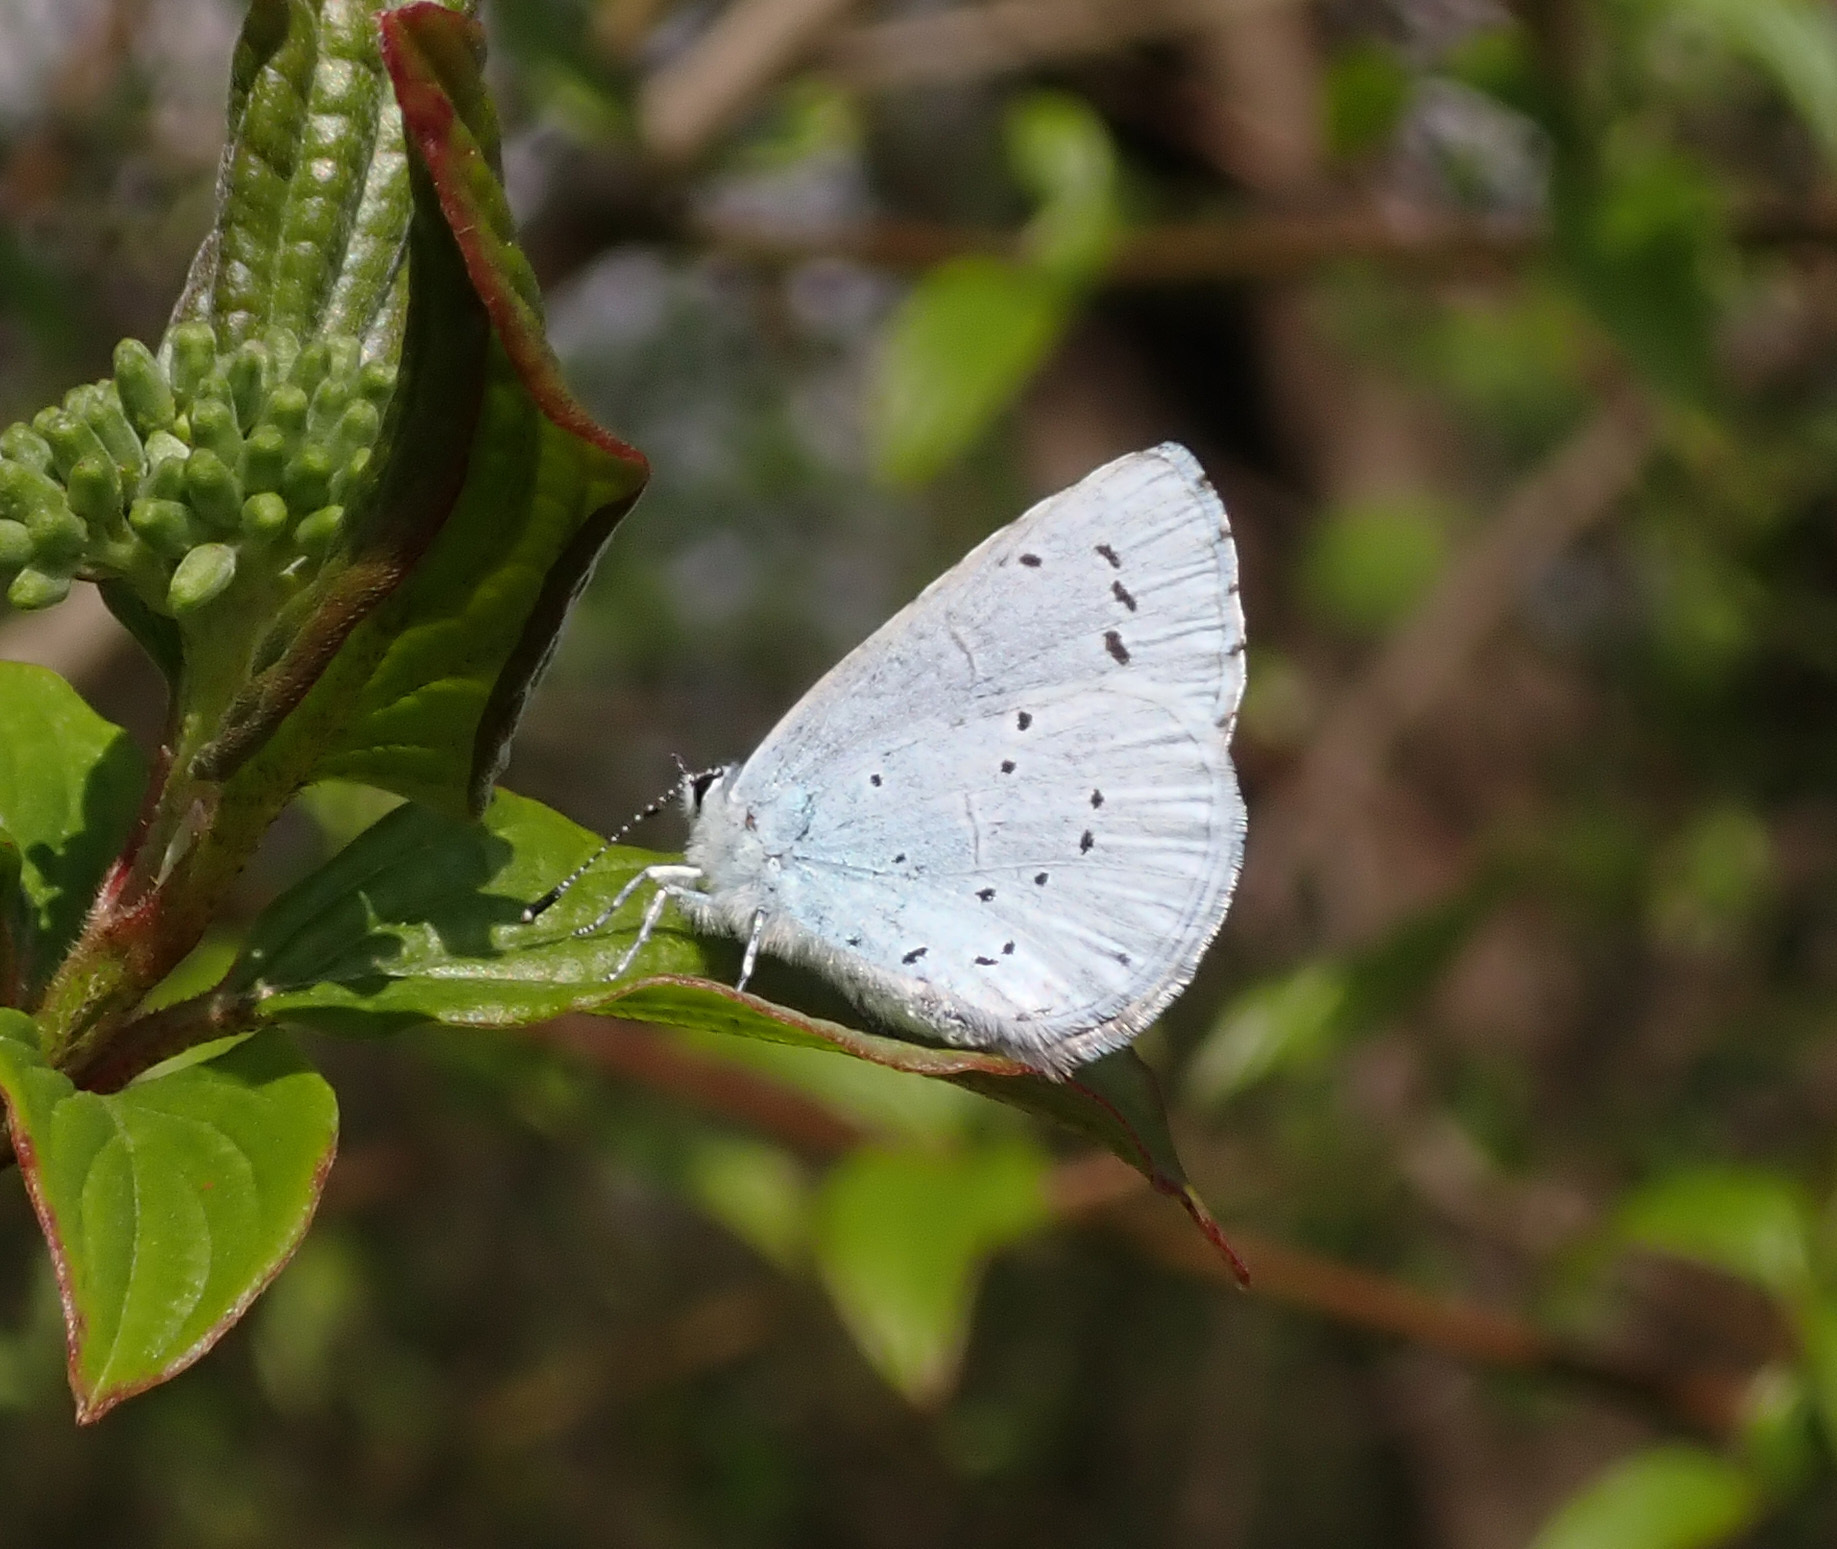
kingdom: Animalia
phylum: Arthropoda
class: Insecta
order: Lepidoptera
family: Lycaenidae
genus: Celastrina
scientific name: Celastrina argiolus
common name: Holly blue
